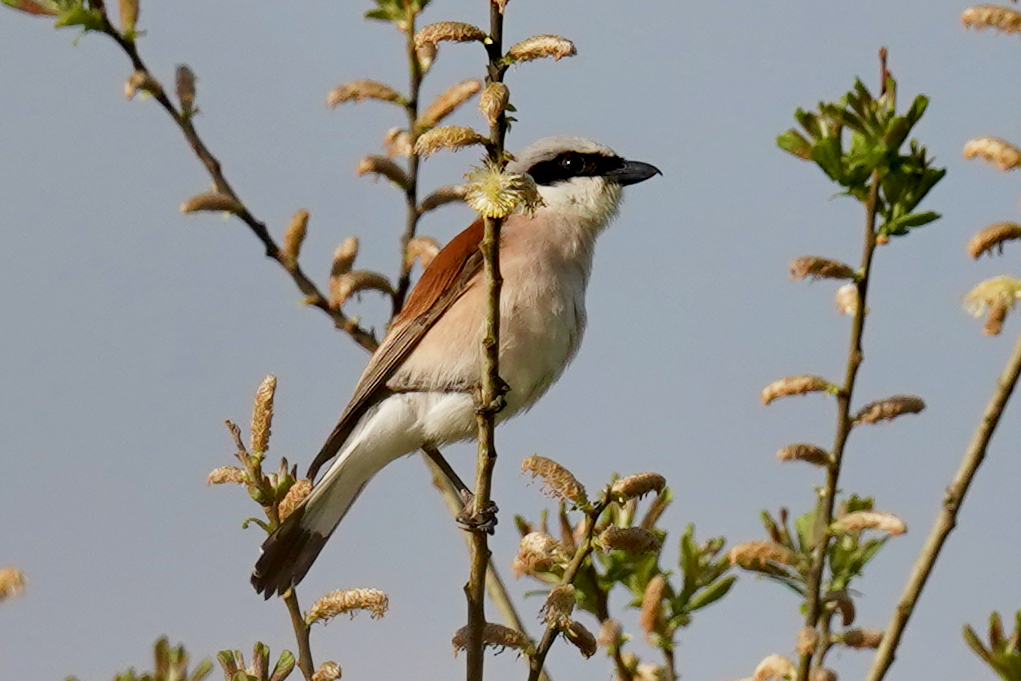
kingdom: Animalia
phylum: Chordata
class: Aves
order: Passeriformes
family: Laniidae
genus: Lanius
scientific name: Lanius collurio
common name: Red-backed shrike
